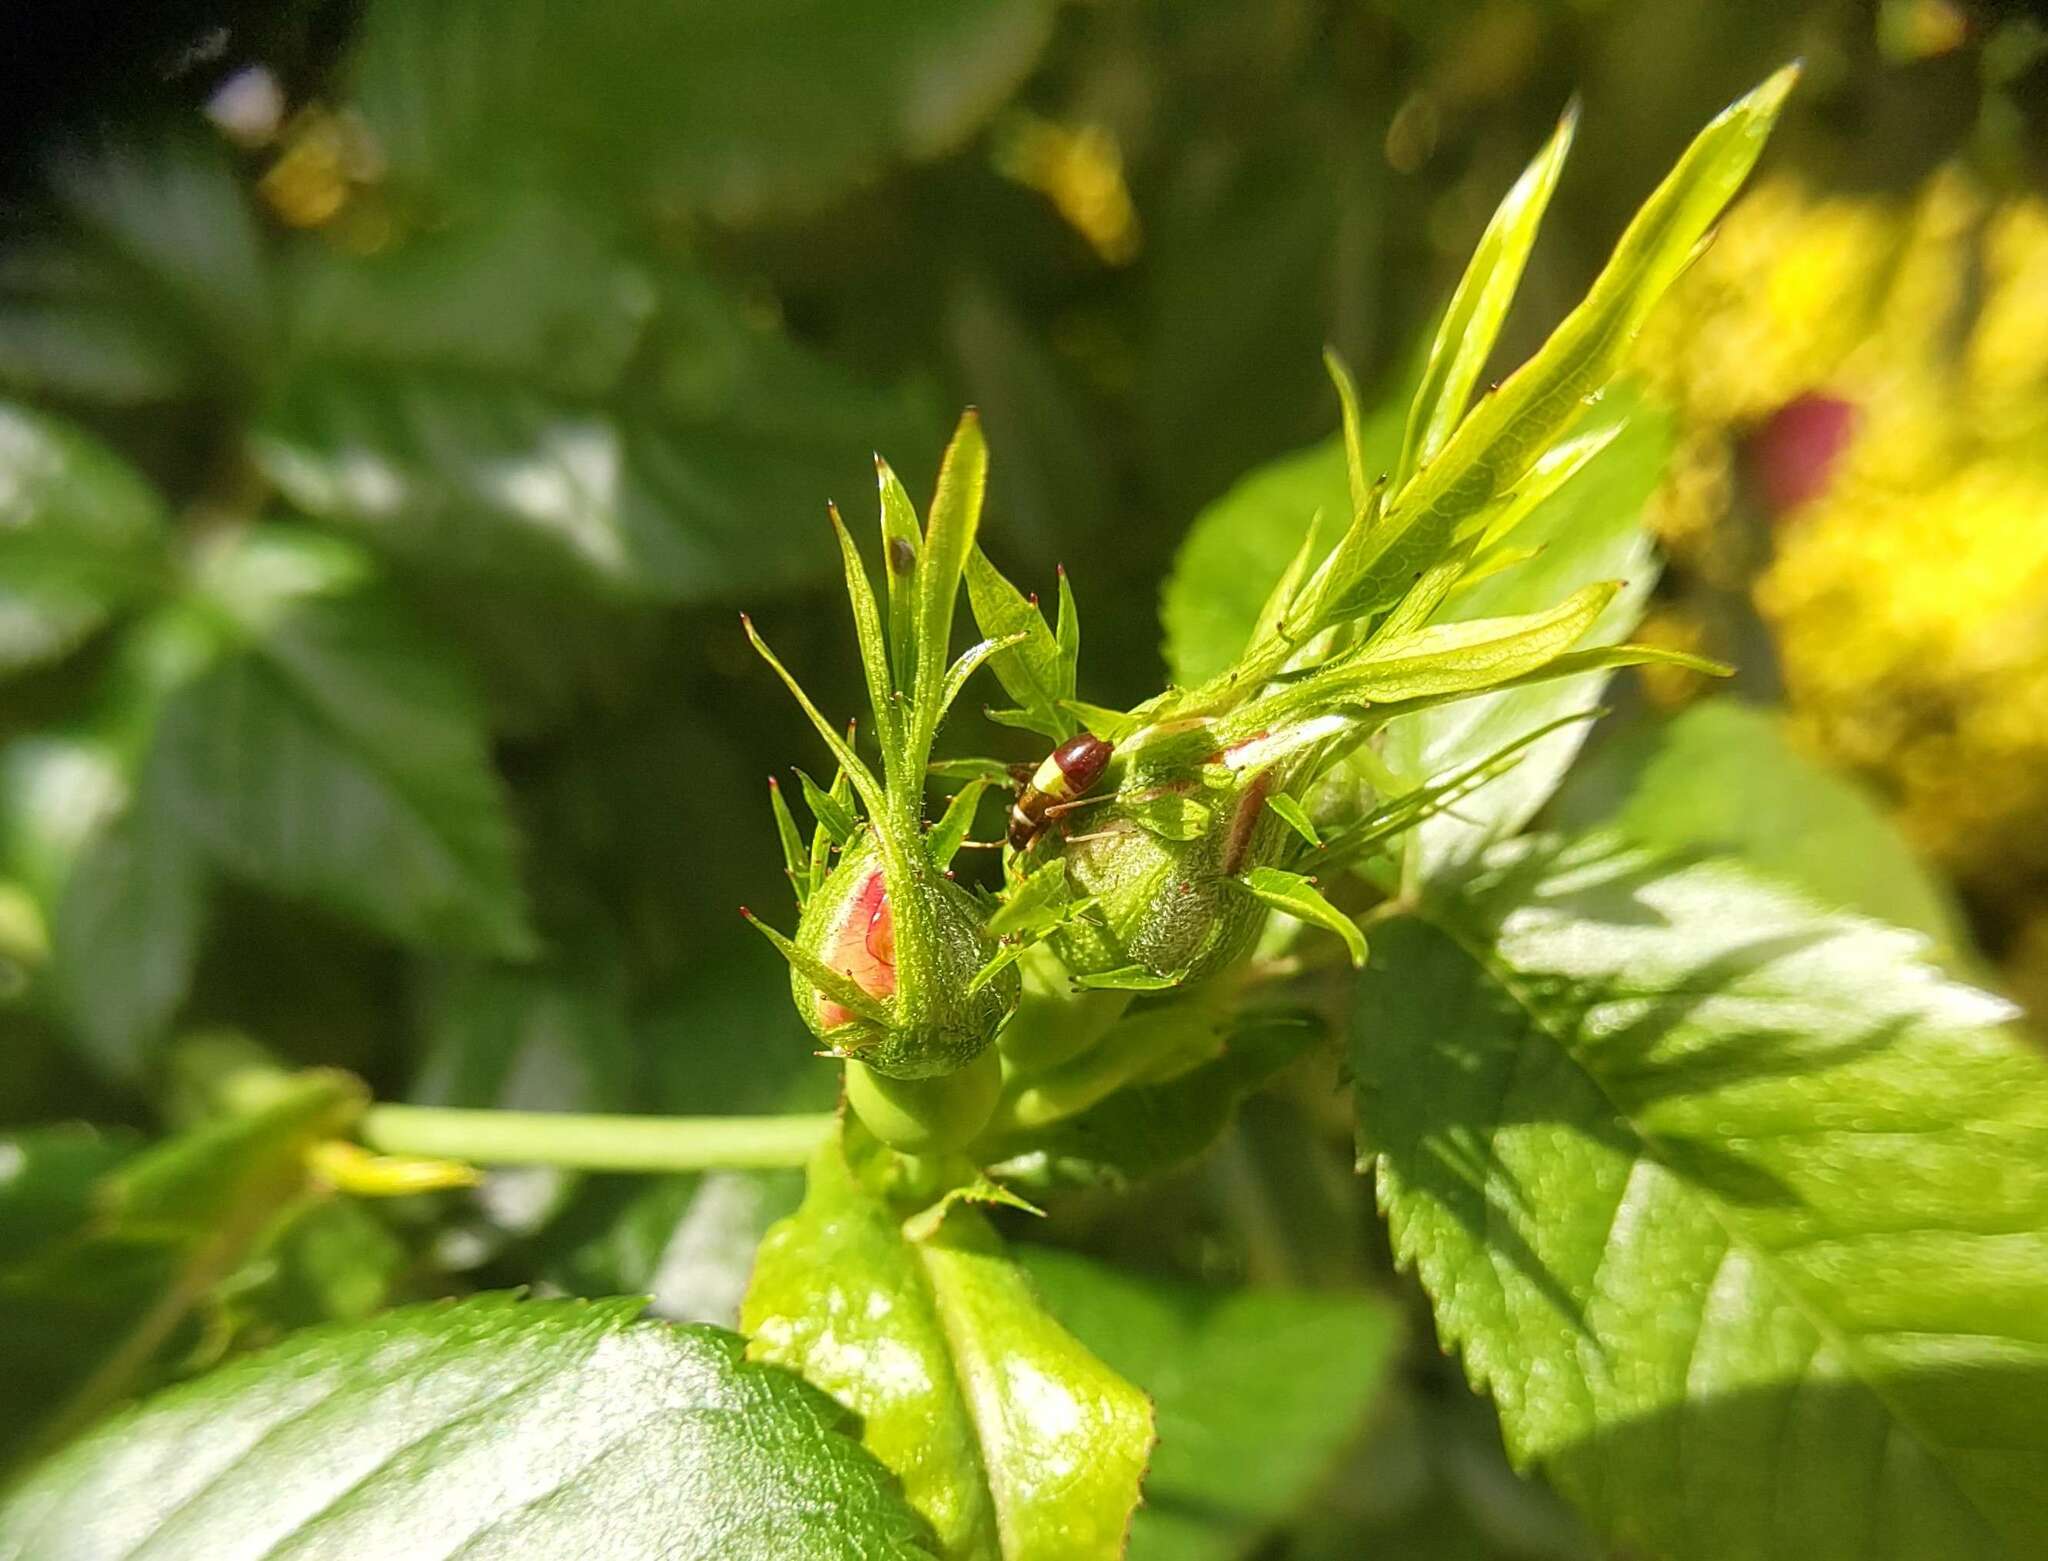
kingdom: Animalia
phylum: Arthropoda
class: Insecta
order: Hemiptera
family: Miridae
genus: Closterotomus
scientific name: Closterotomus biclavatus
